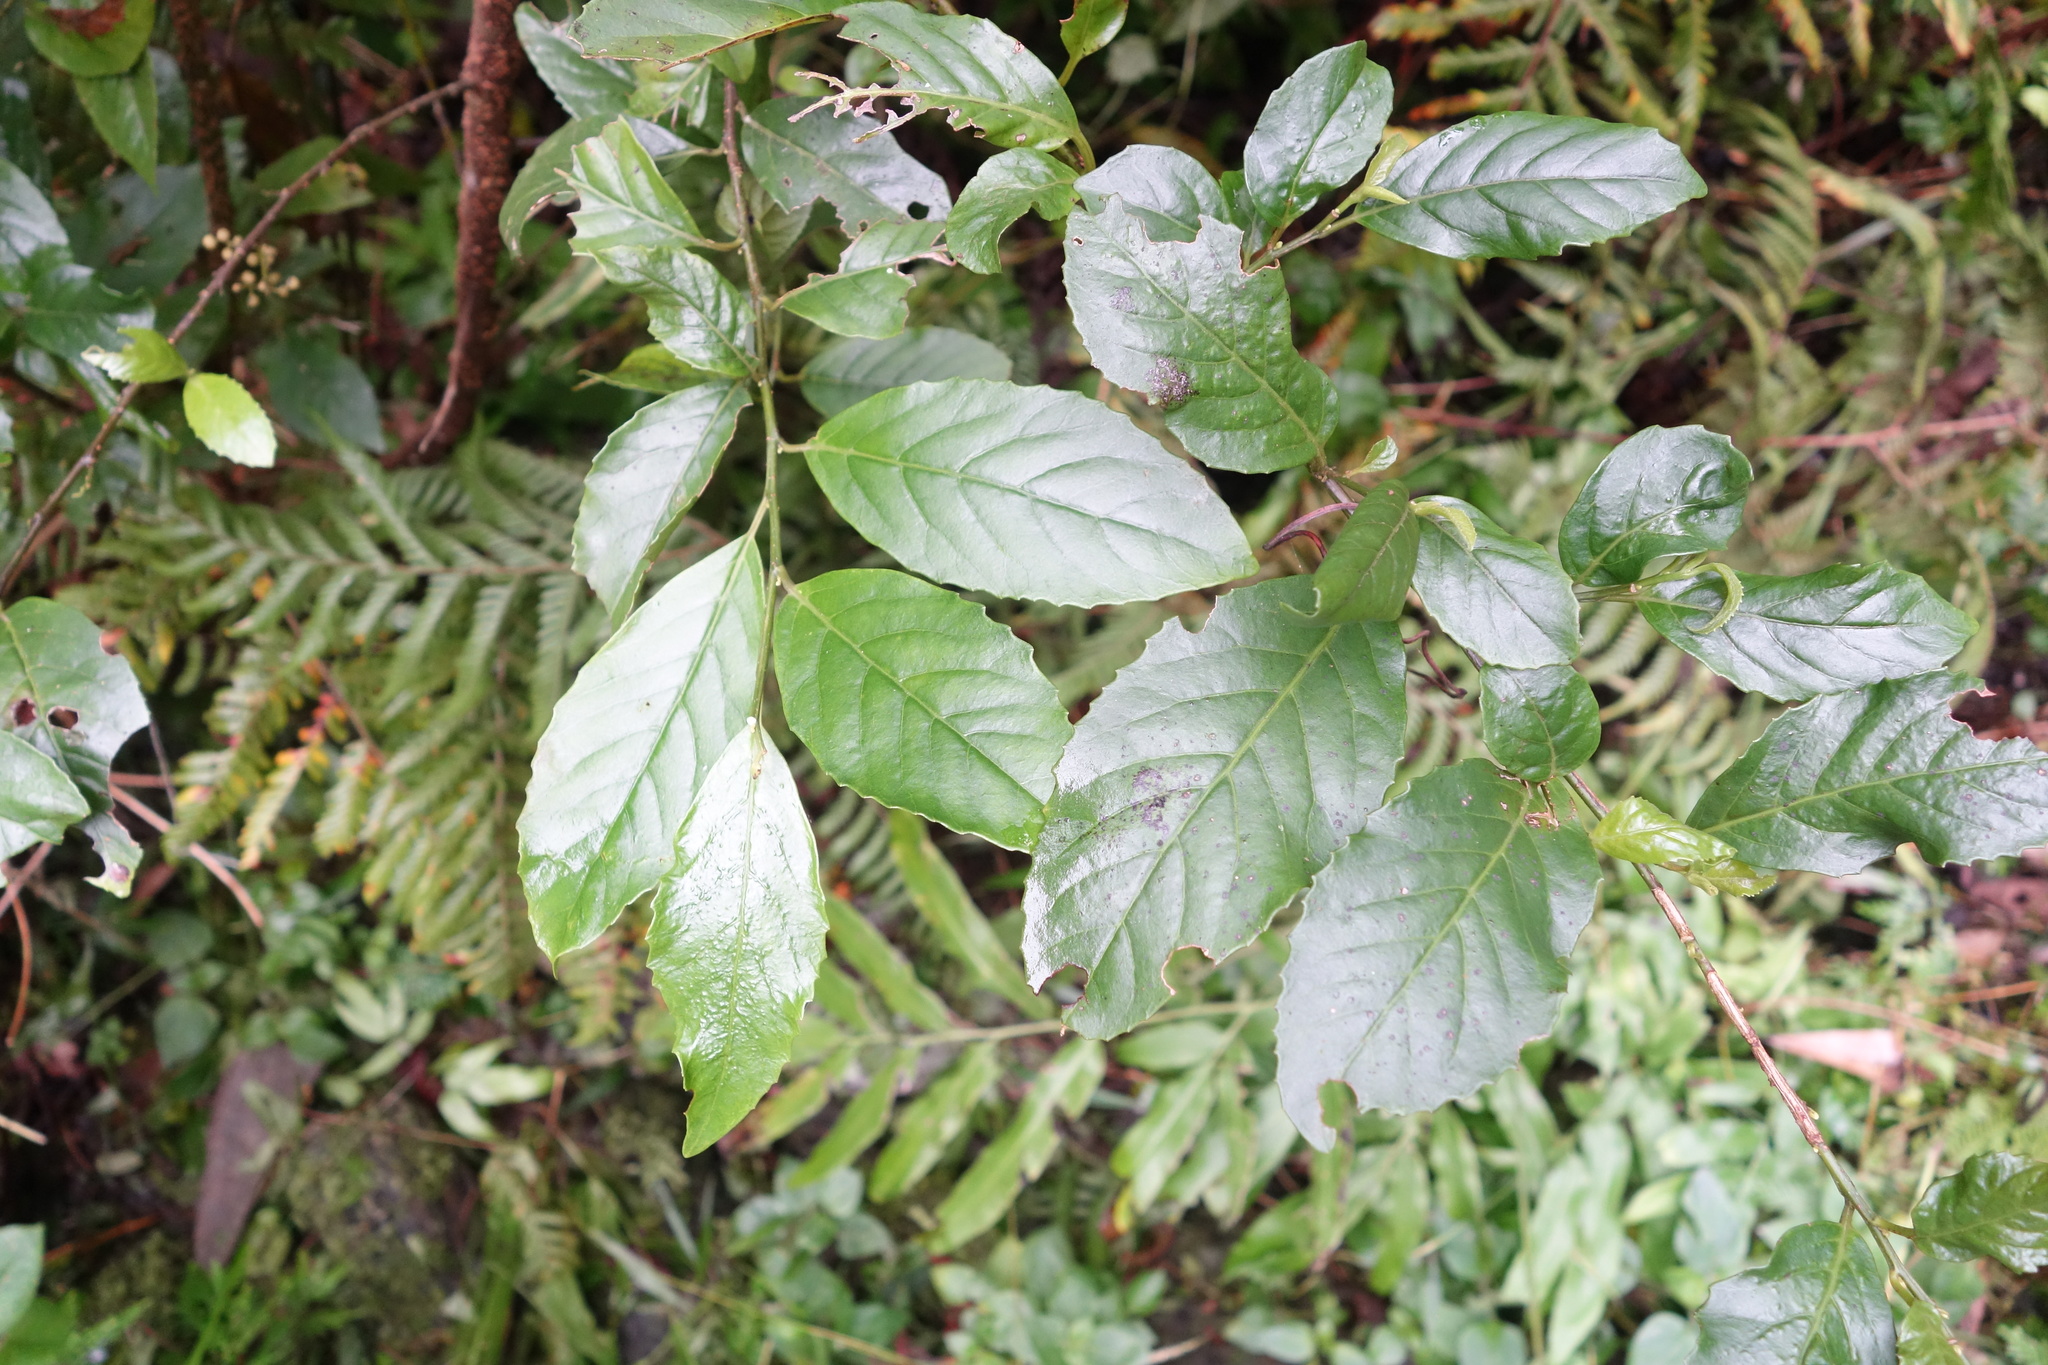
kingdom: Plantae
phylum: Tracheophyta
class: Magnoliopsida
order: Ericales
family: Primulaceae
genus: Maesa
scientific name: Maesa perlaria
